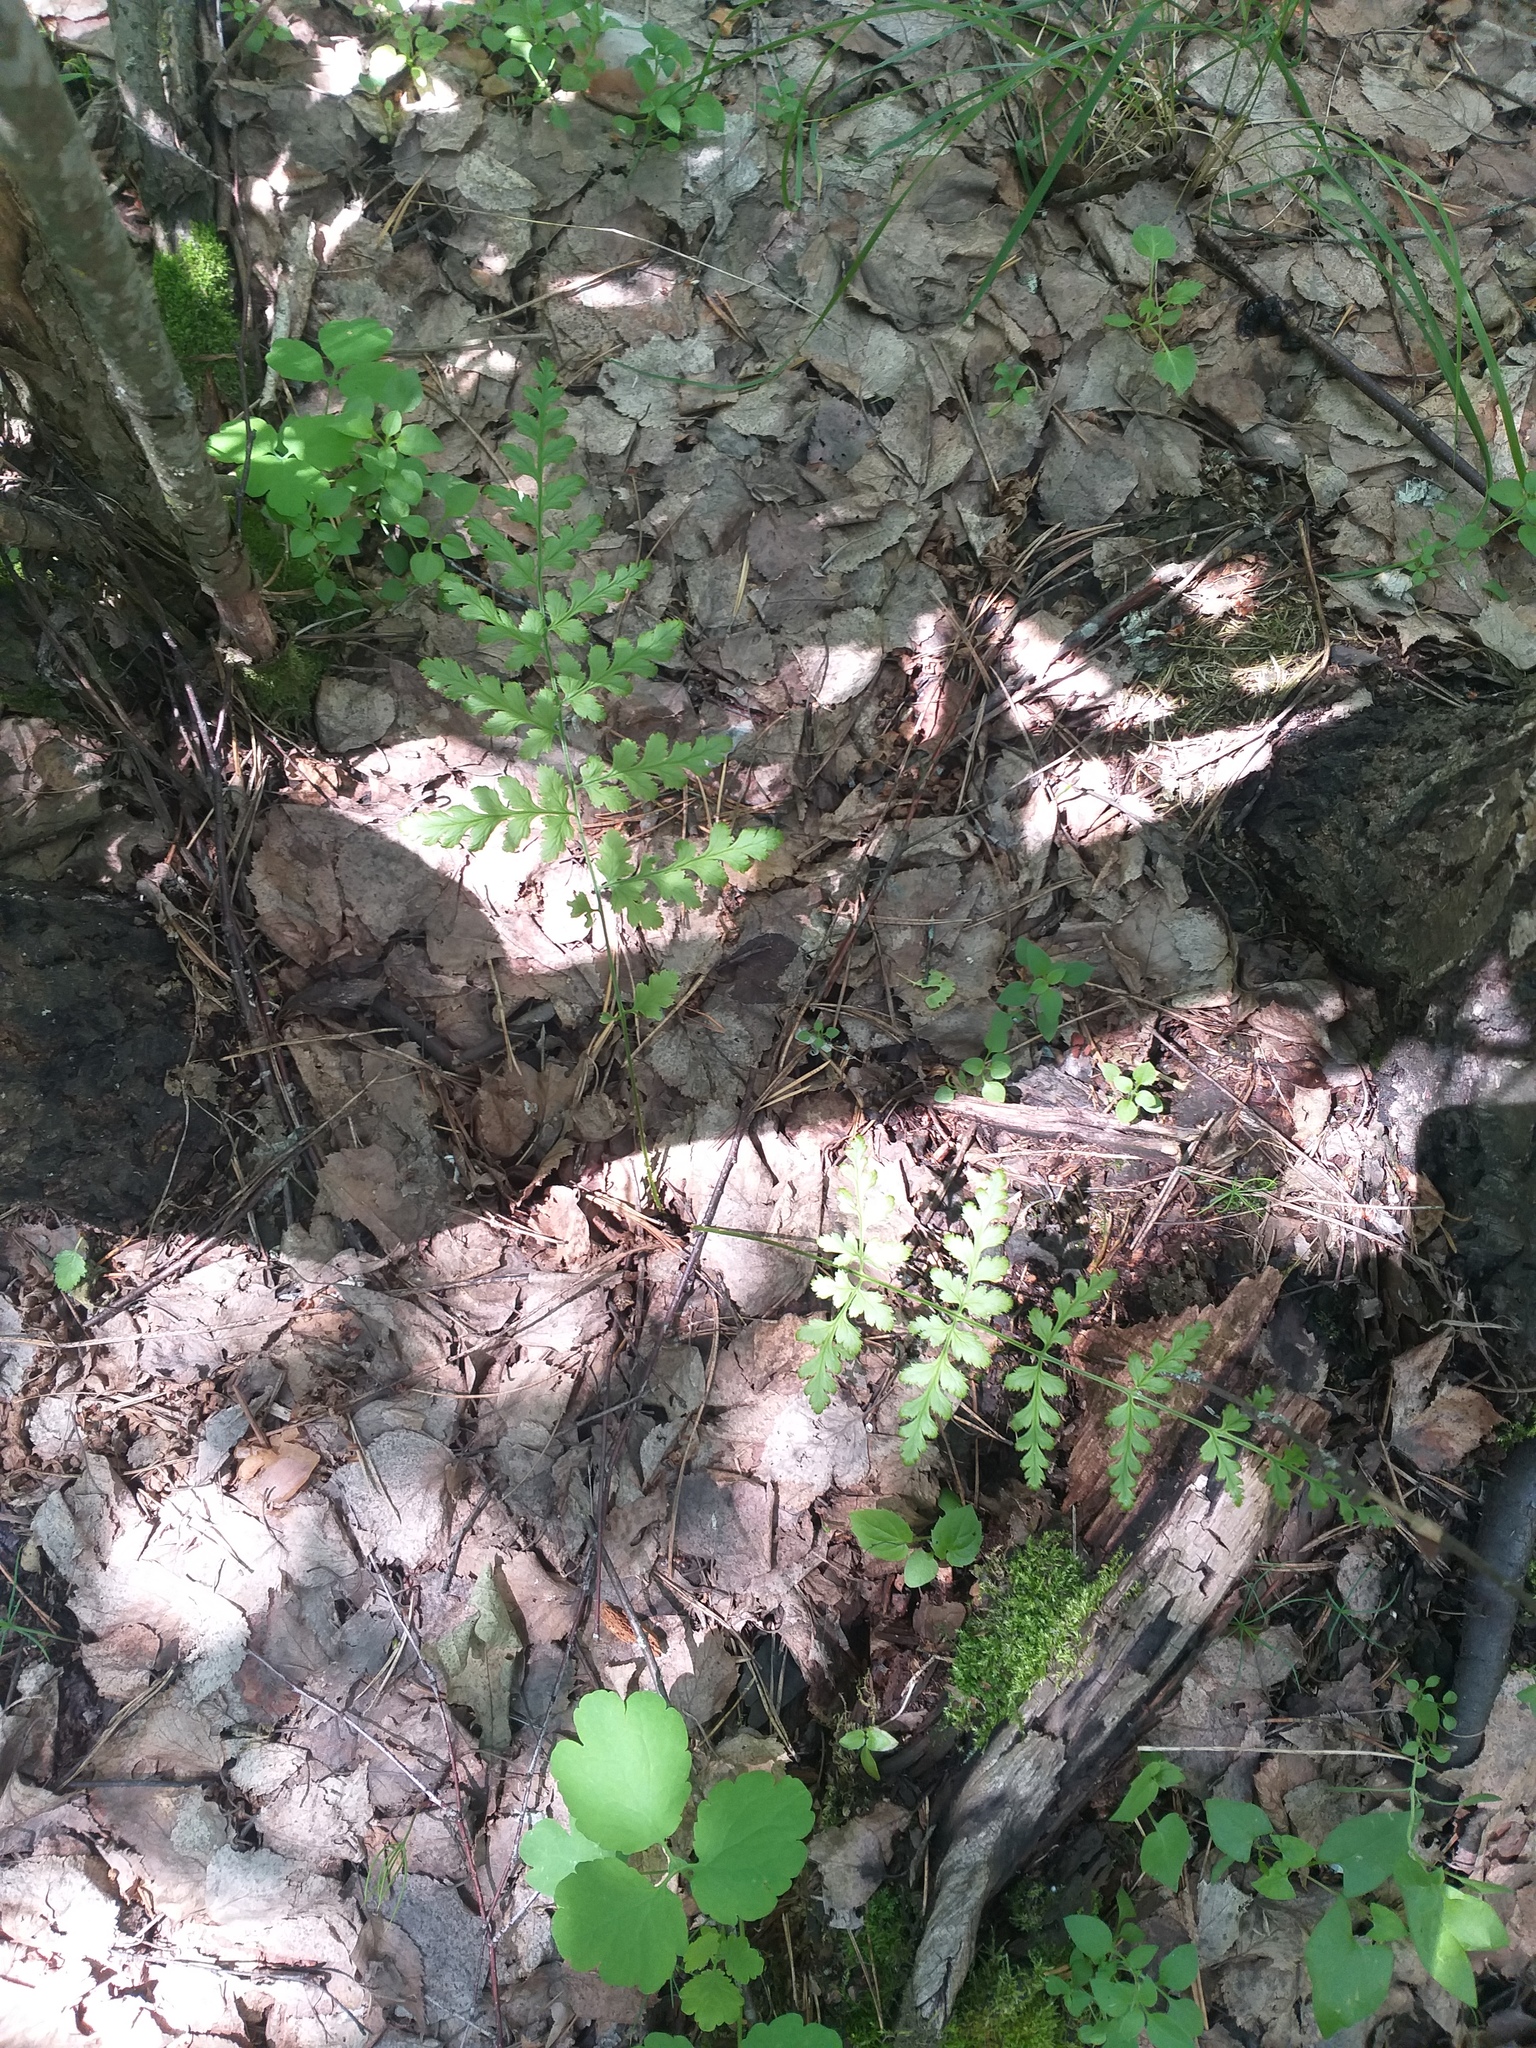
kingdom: Plantae
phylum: Tracheophyta
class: Polypodiopsida
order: Polypodiales
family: Dryopteridaceae
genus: Dryopteris
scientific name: Dryopteris carthusiana
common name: Narrow buckler-fern
